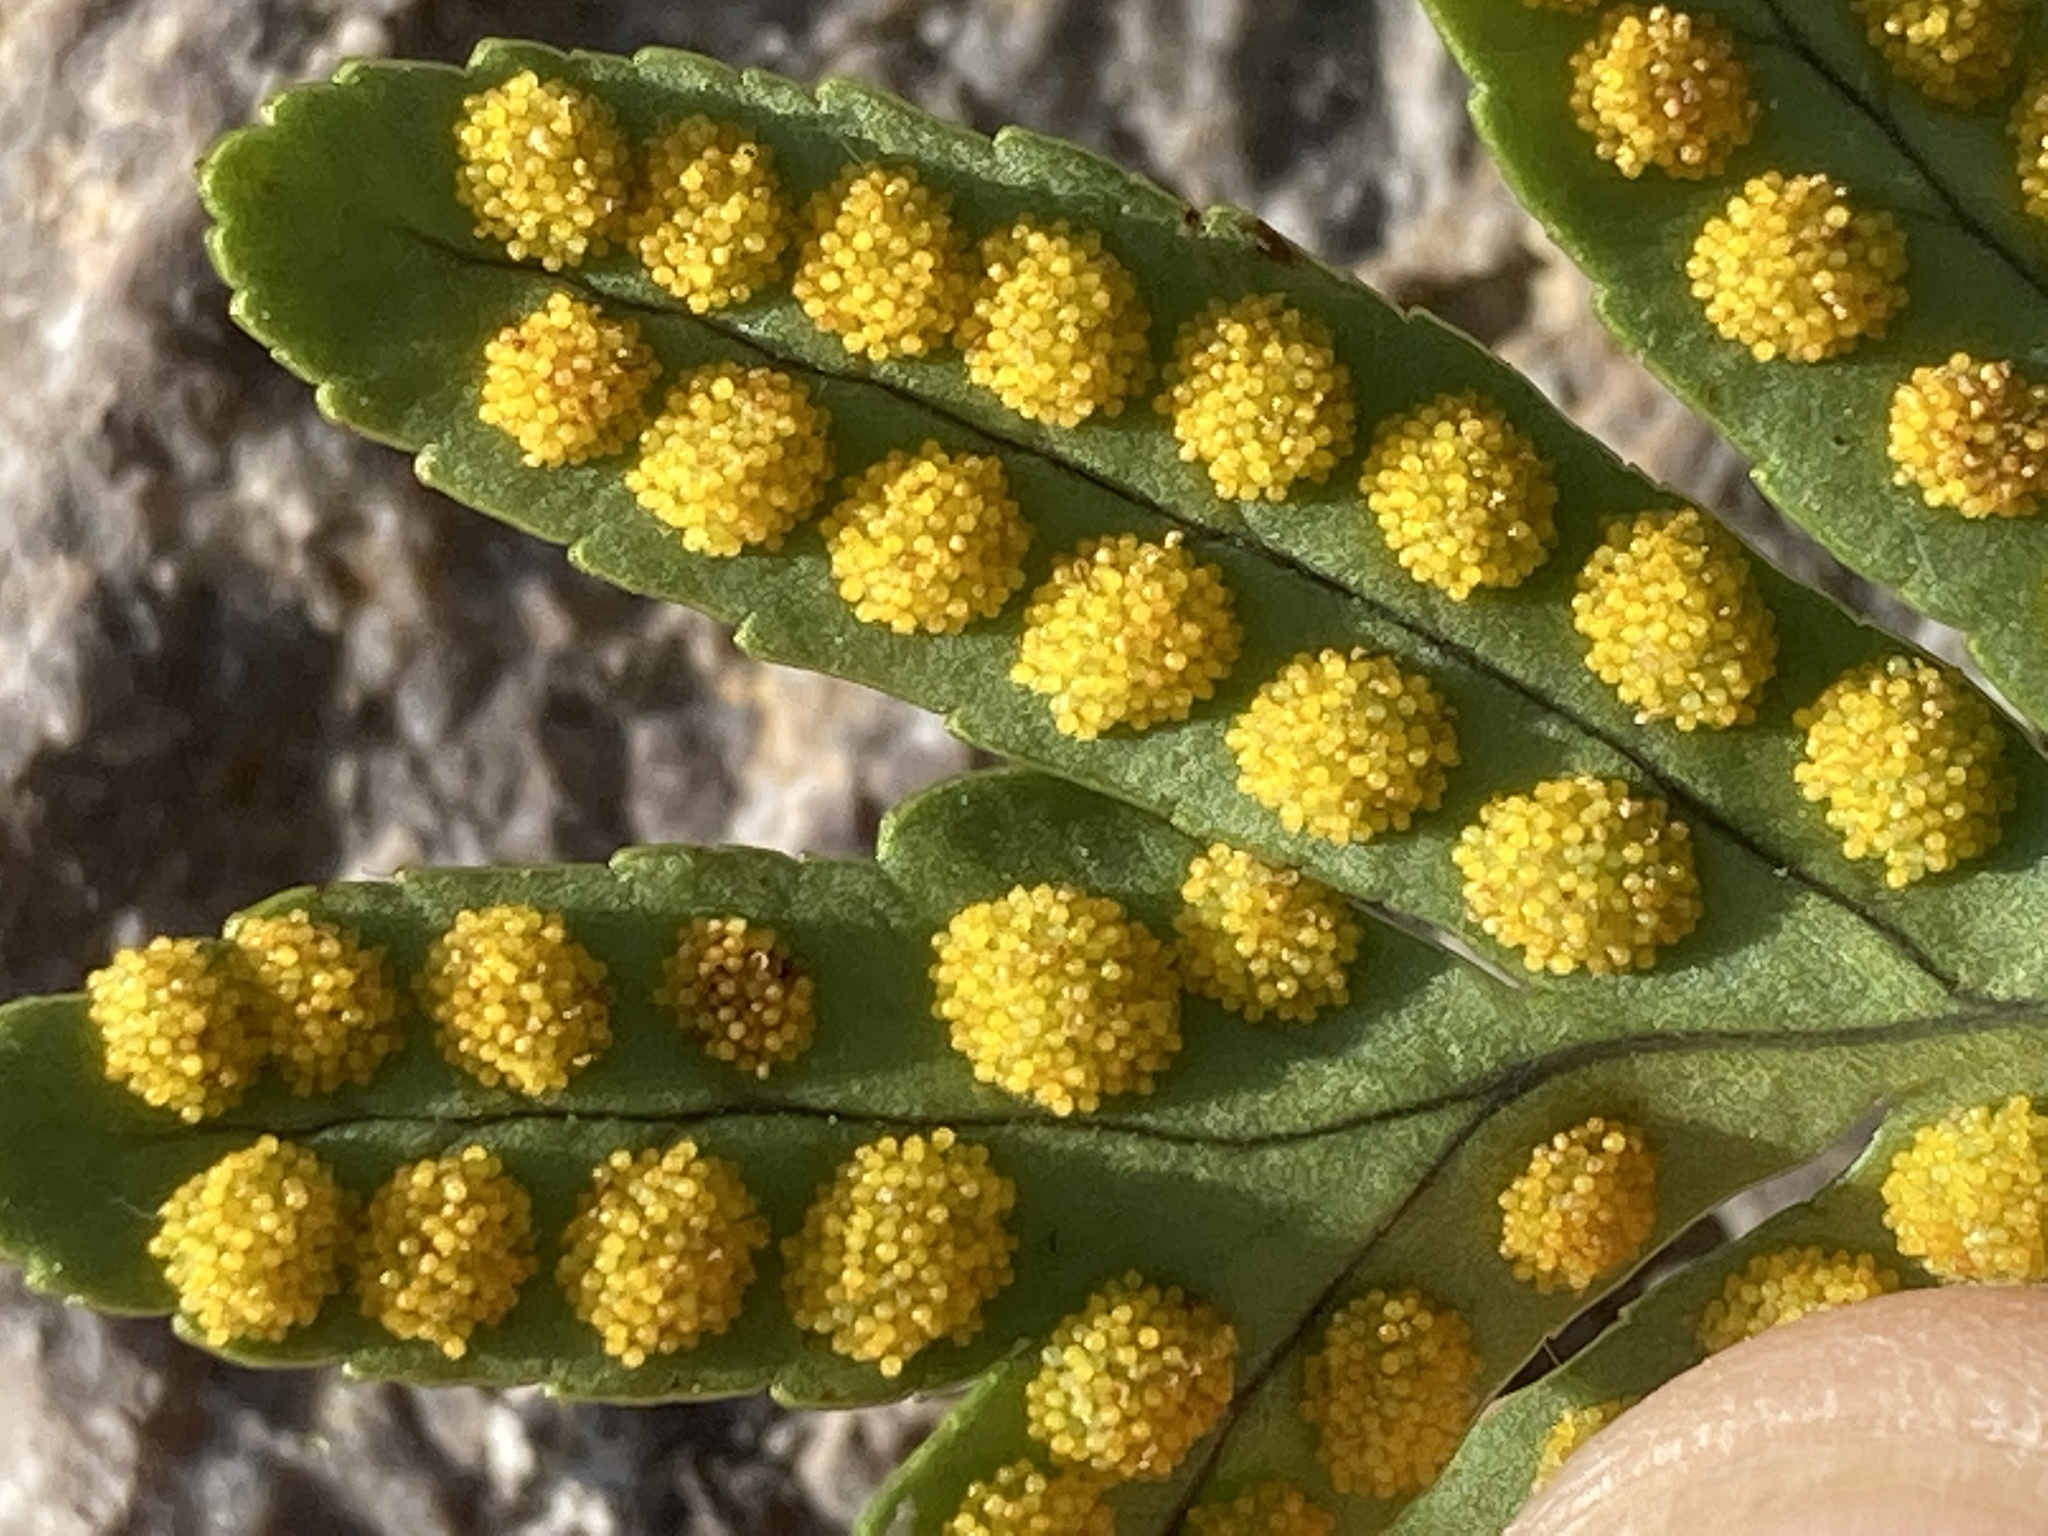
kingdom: Plantae
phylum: Tracheophyta
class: Polypodiopsida
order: Polypodiales
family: Polypodiaceae
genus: Polypodium
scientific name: Polypodium cambricum
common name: Southern polypody
